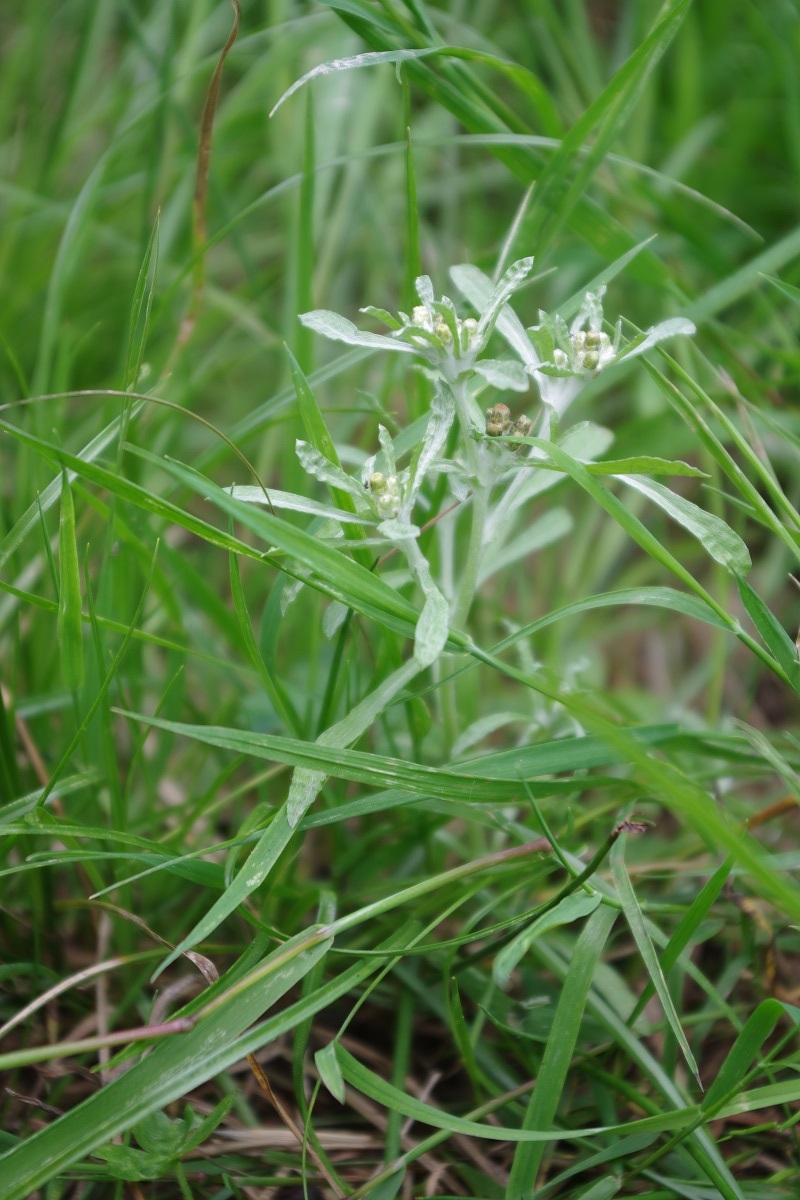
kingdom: Plantae
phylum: Tracheophyta
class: Magnoliopsida
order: Asterales
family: Asteraceae
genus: Gnaphalium
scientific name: Gnaphalium uliginosum
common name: Marsh cudweed
